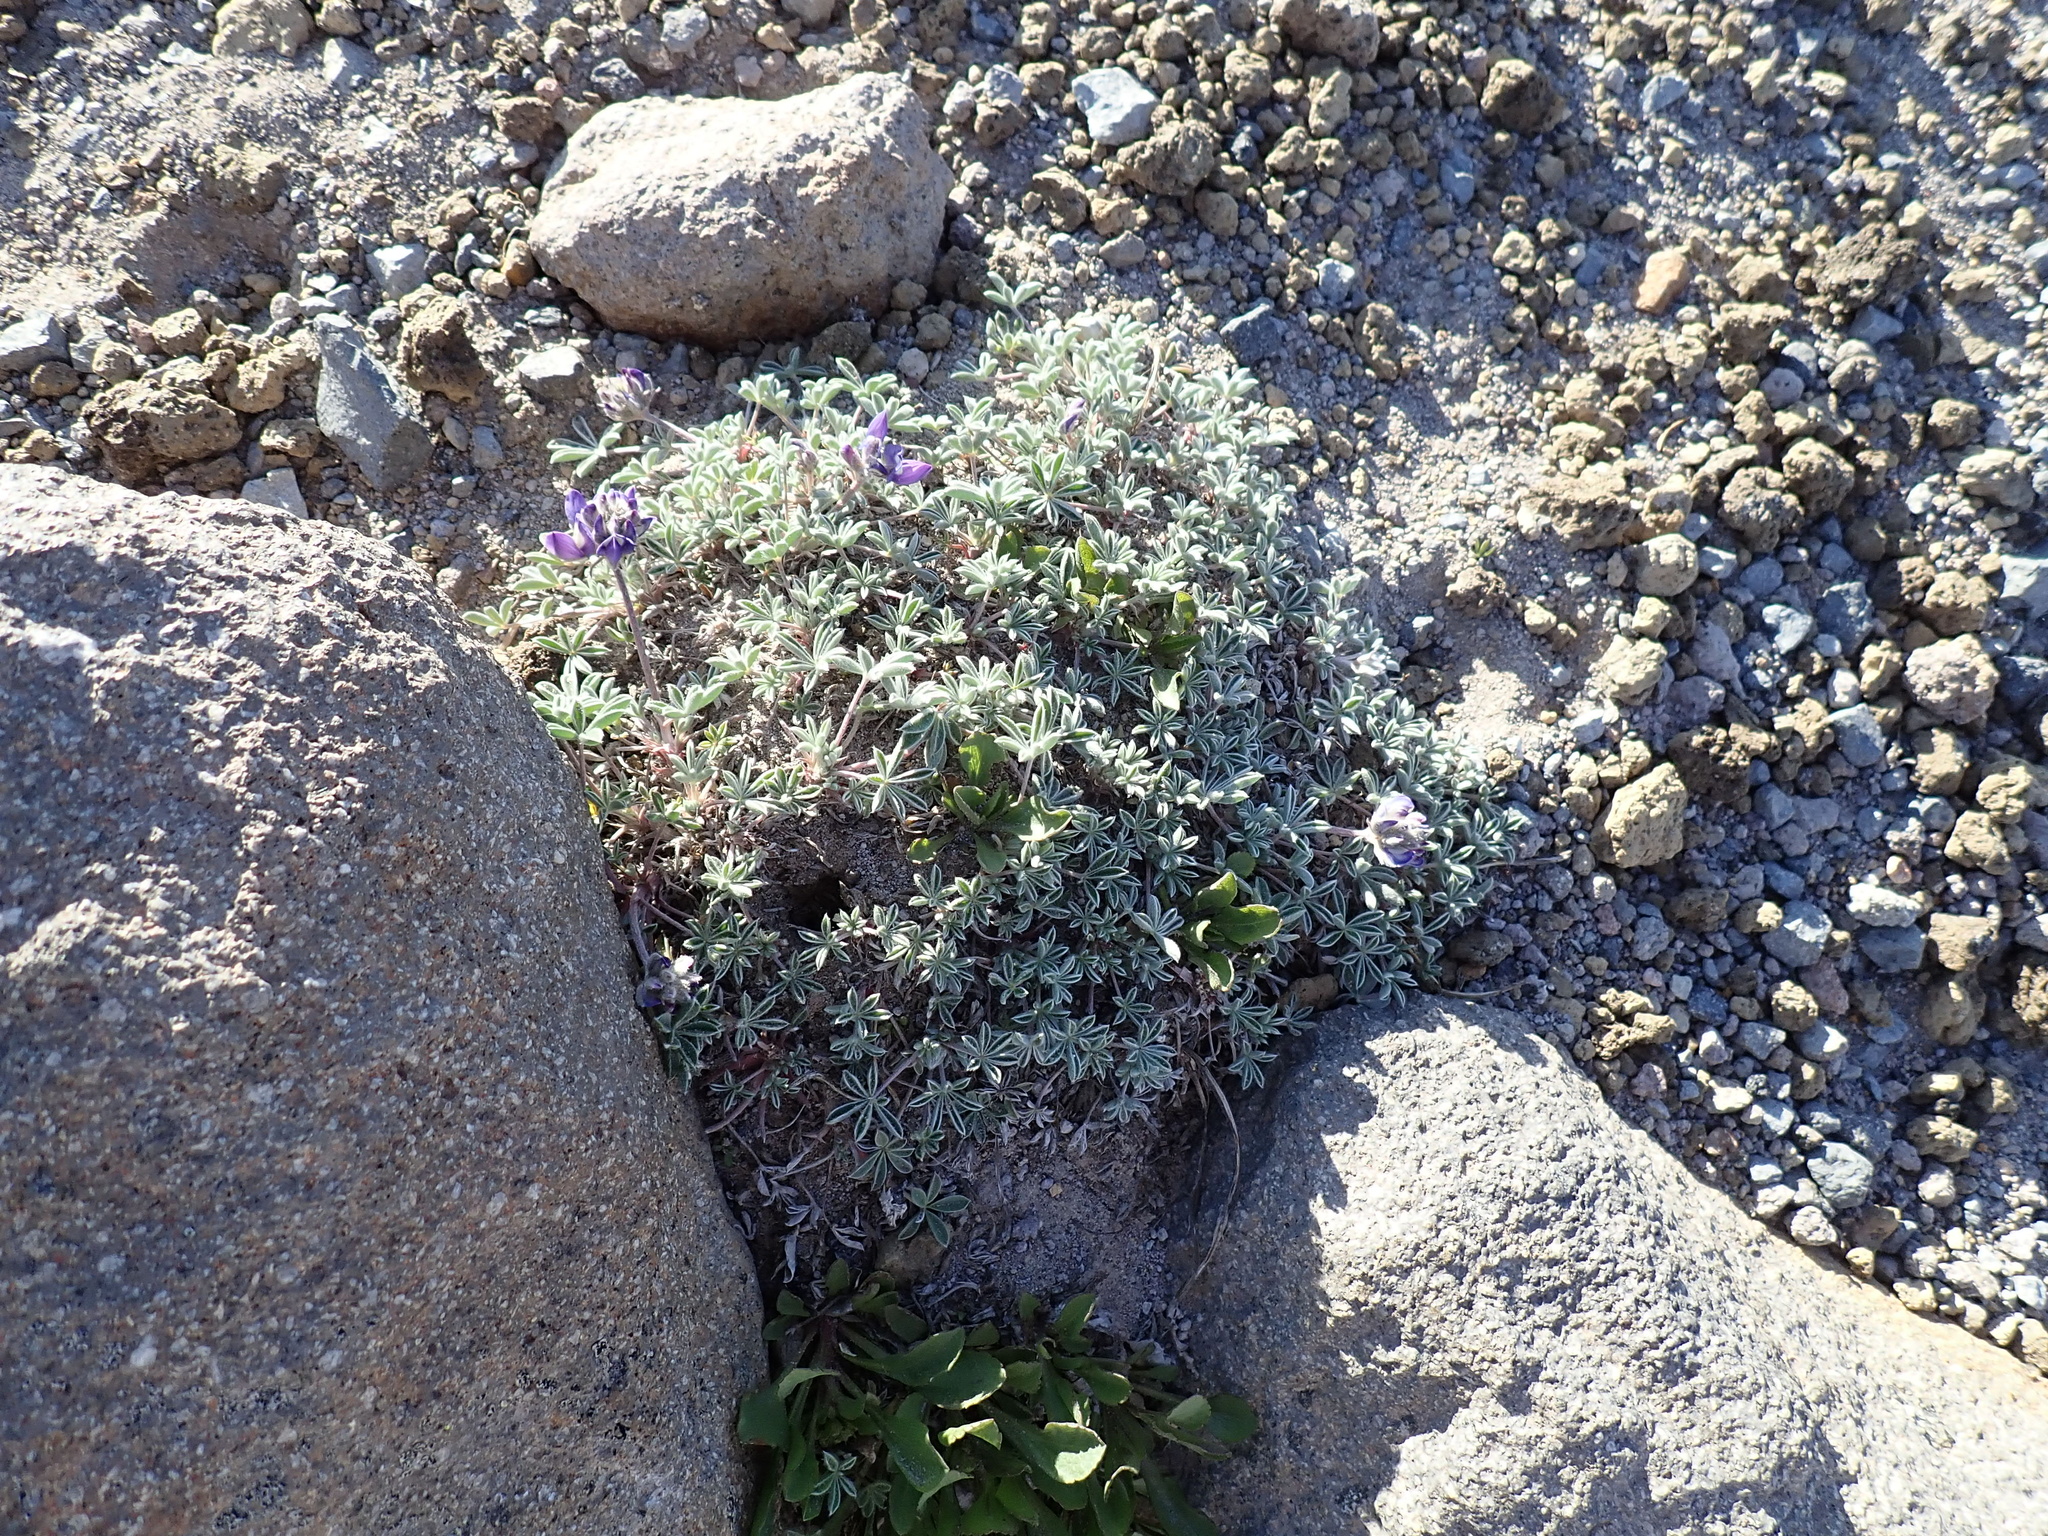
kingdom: Plantae
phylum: Tracheophyta
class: Magnoliopsida
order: Fabales
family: Fabaceae
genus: Lupinus
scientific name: Lupinus sellulus
